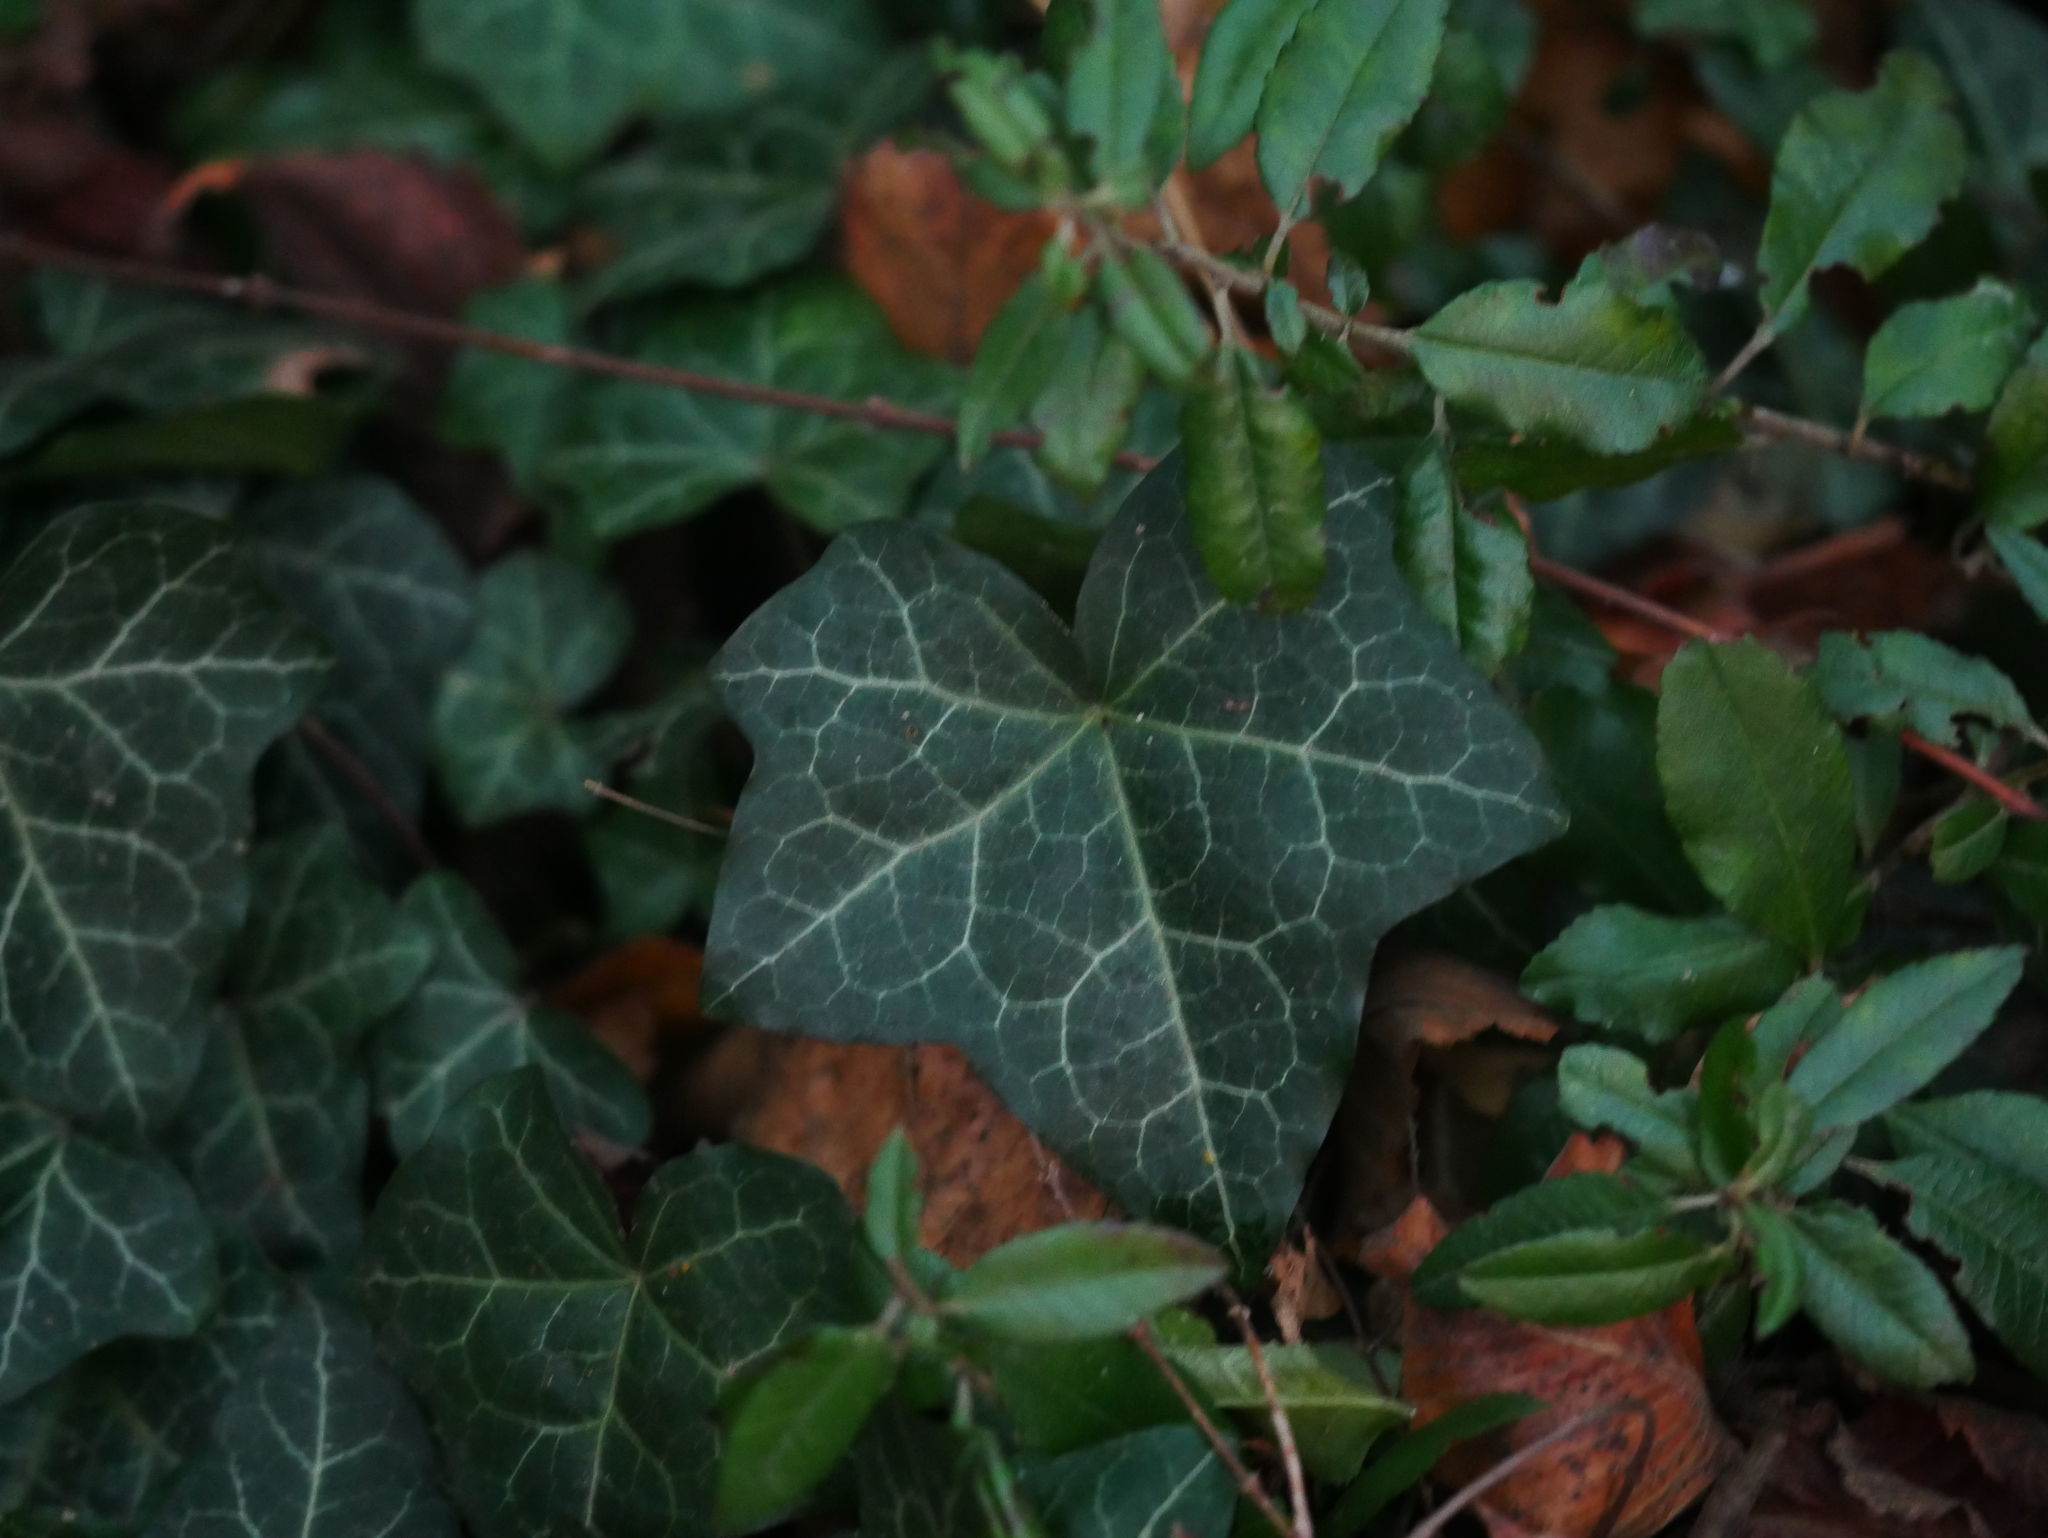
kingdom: Plantae
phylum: Tracheophyta
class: Magnoliopsida
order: Apiales
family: Araliaceae
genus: Hedera
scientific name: Hedera helix
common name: Ivy
